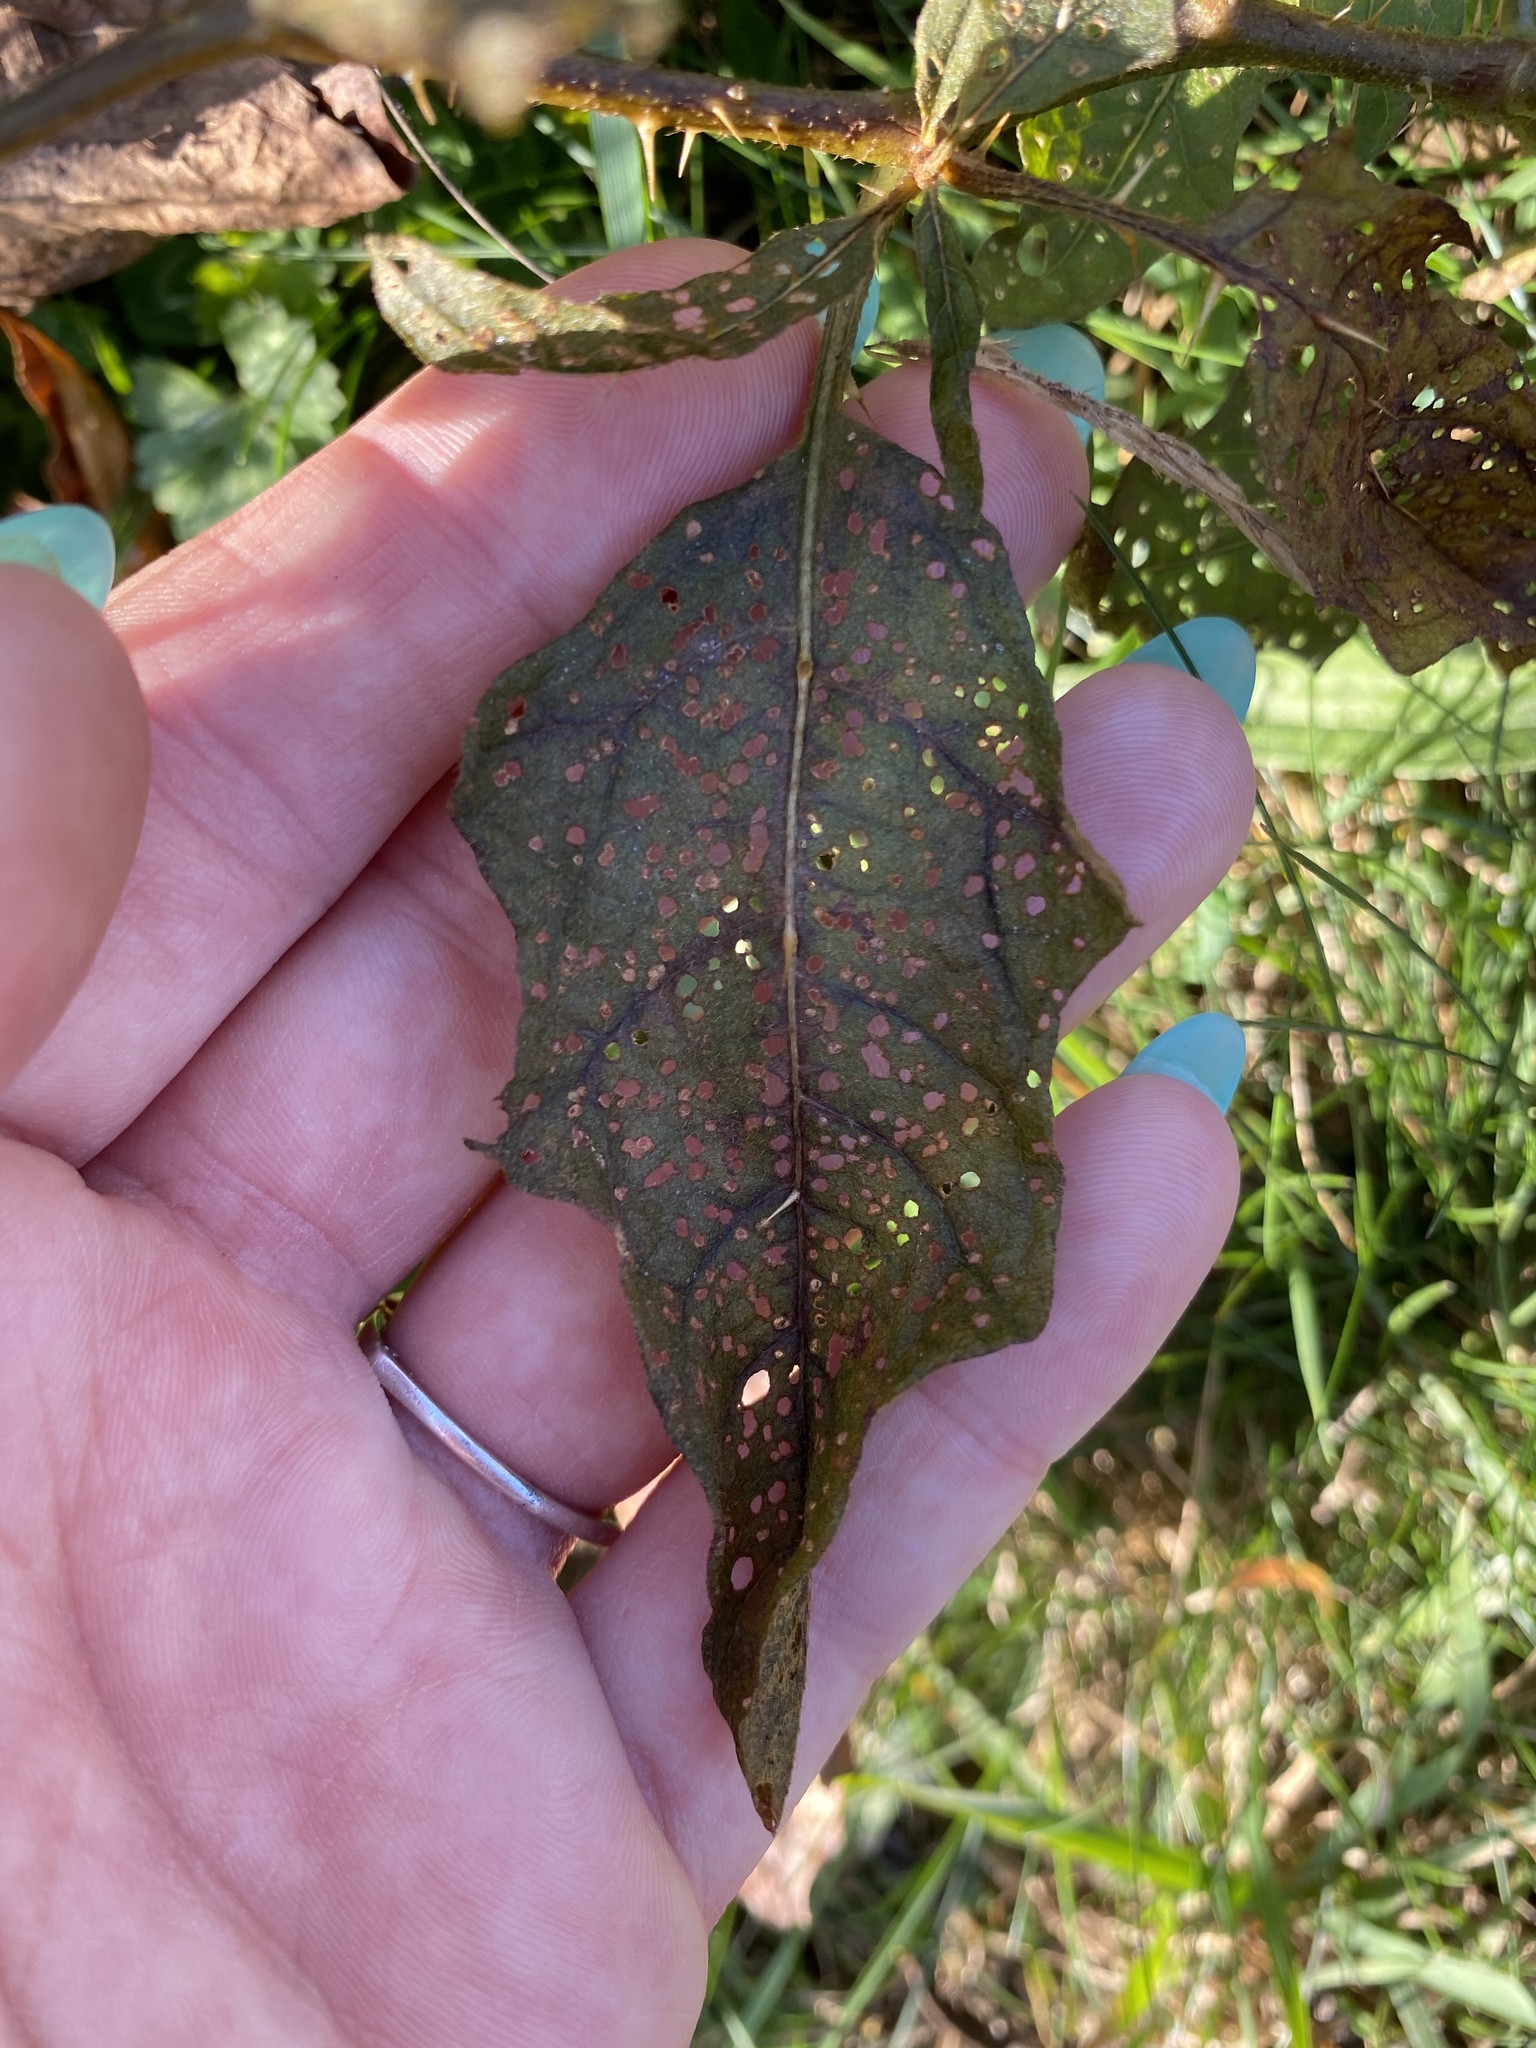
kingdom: Plantae
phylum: Tracheophyta
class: Magnoliopsida
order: Solanales
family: Solanaceae
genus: Solanum
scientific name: Solanum carolinense
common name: Horse-nettle
